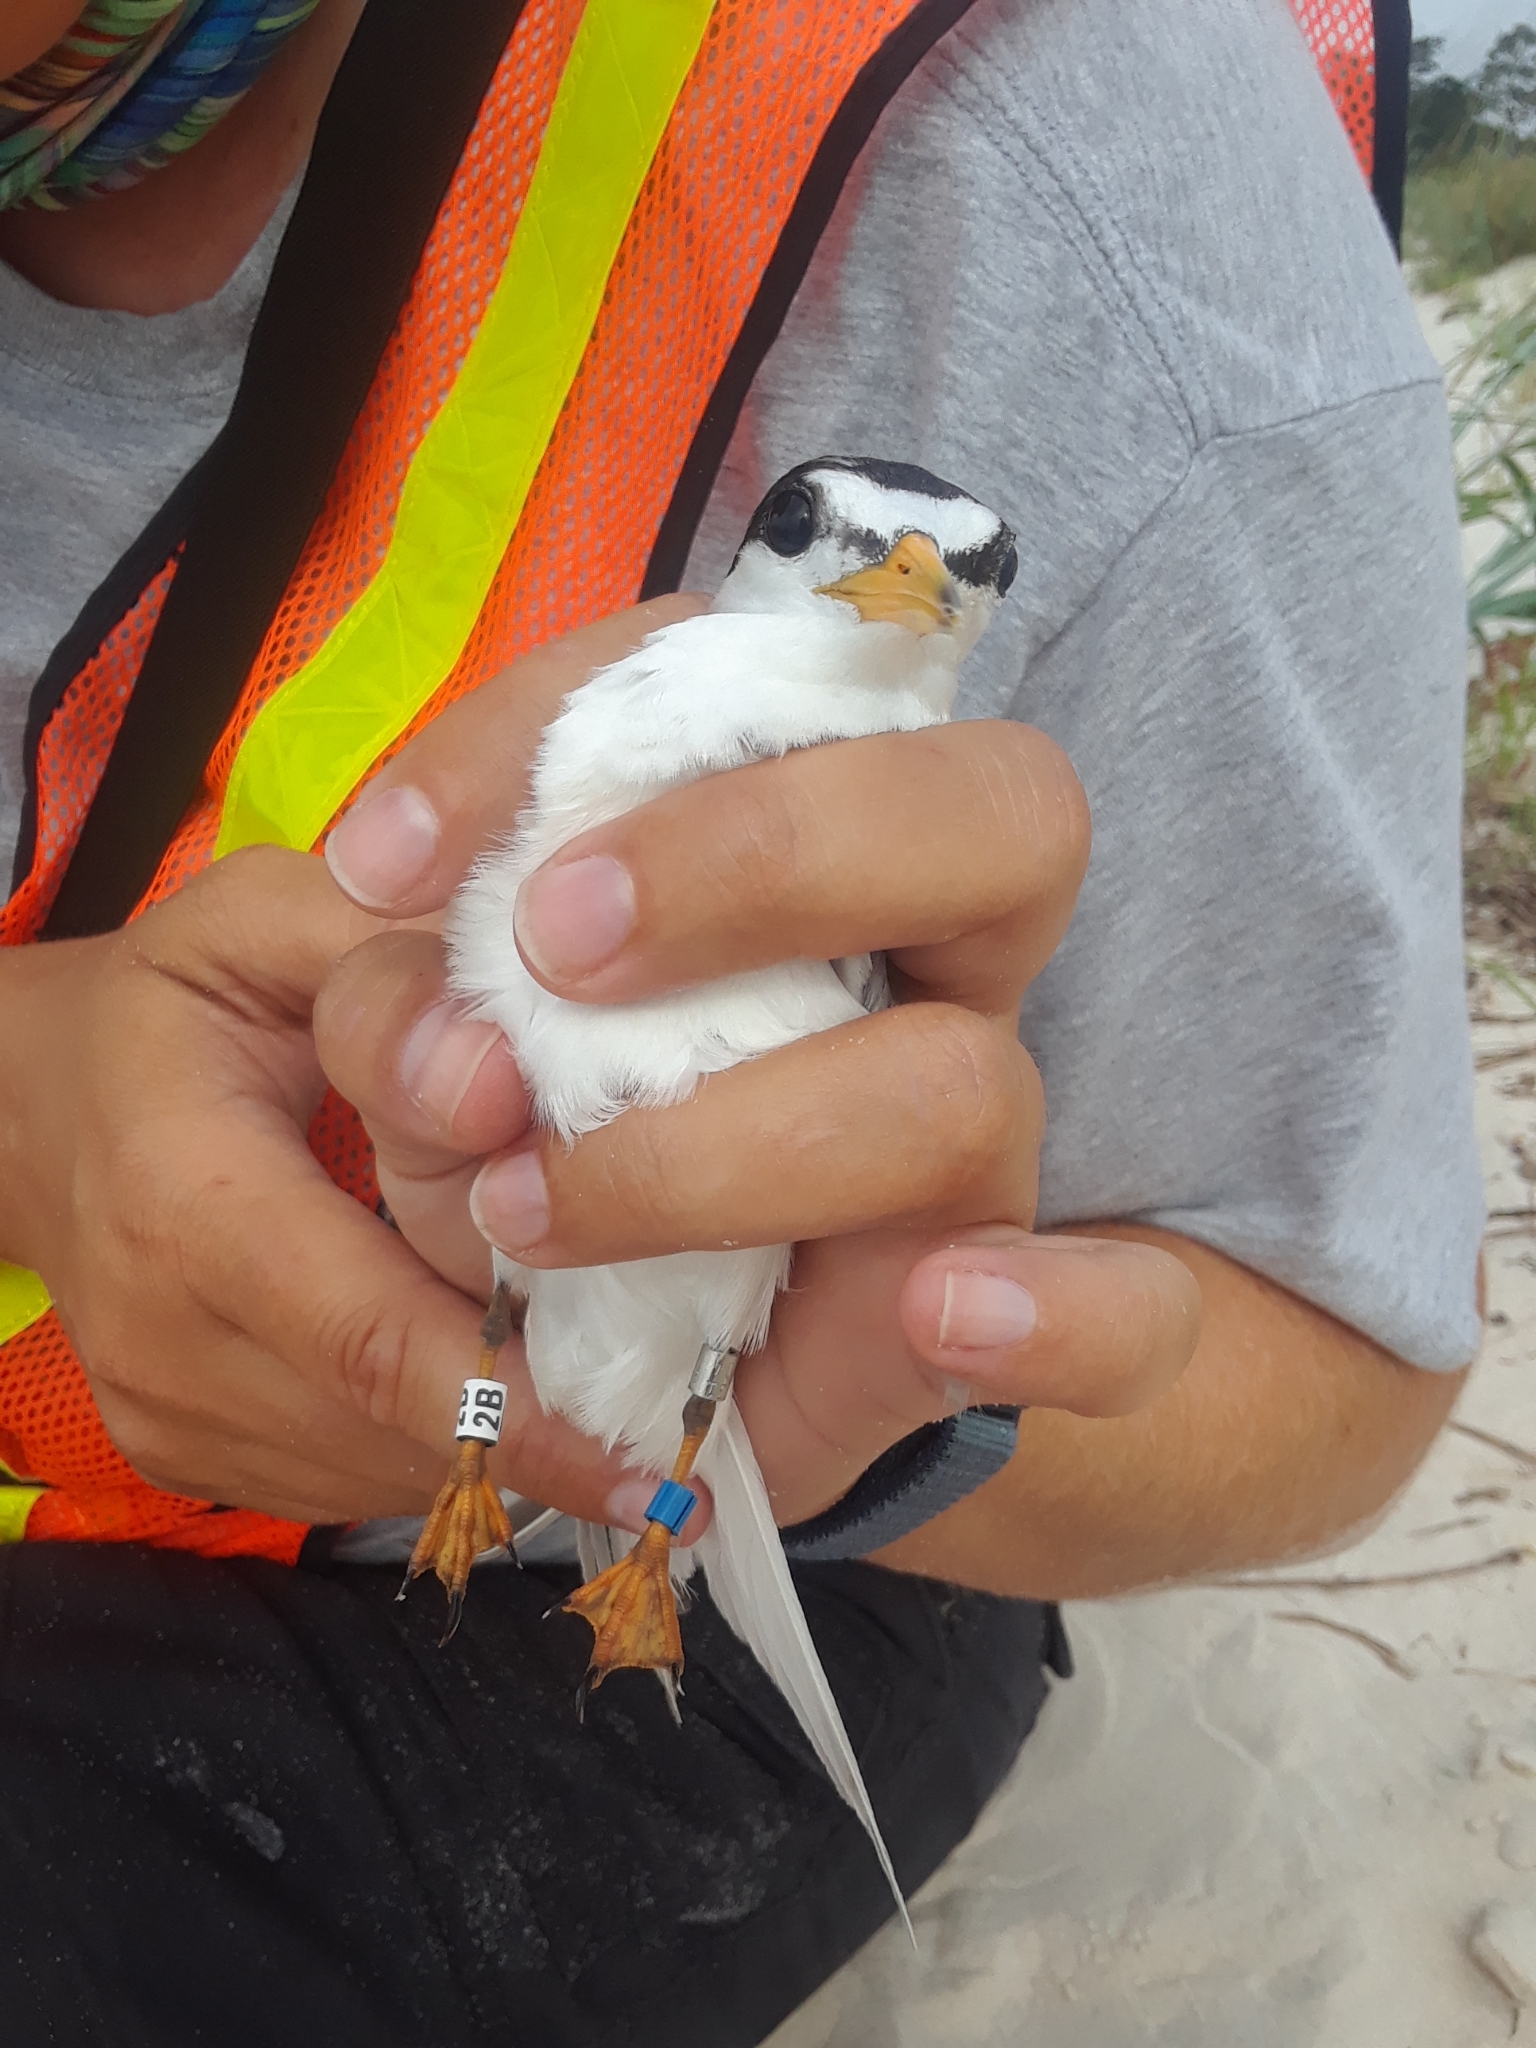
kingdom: Animalia
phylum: Chordata
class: Aves
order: Charadriiformes
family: Laridae
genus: Sternula
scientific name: Sternula antillarum
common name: Least tern
